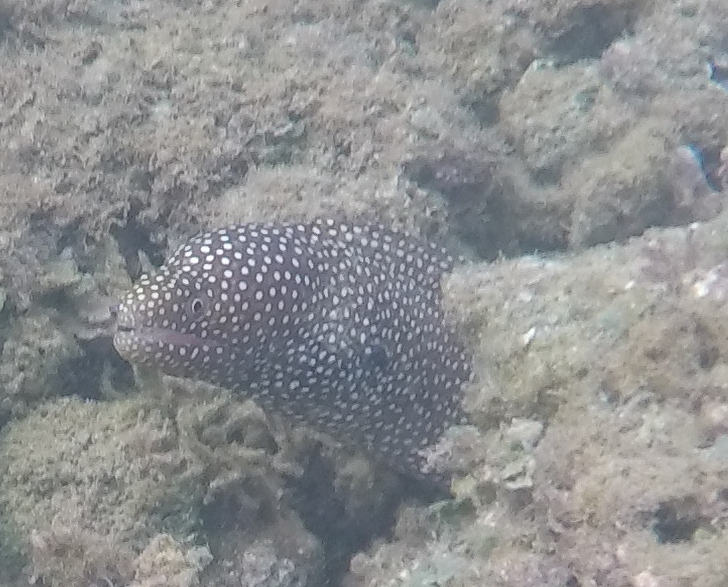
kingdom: Animalia
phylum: Chordata
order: Anguilliformes
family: Muraenidae
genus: Gymnothorax
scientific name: Gymnothorax meleagris
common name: Guineafowl moray
